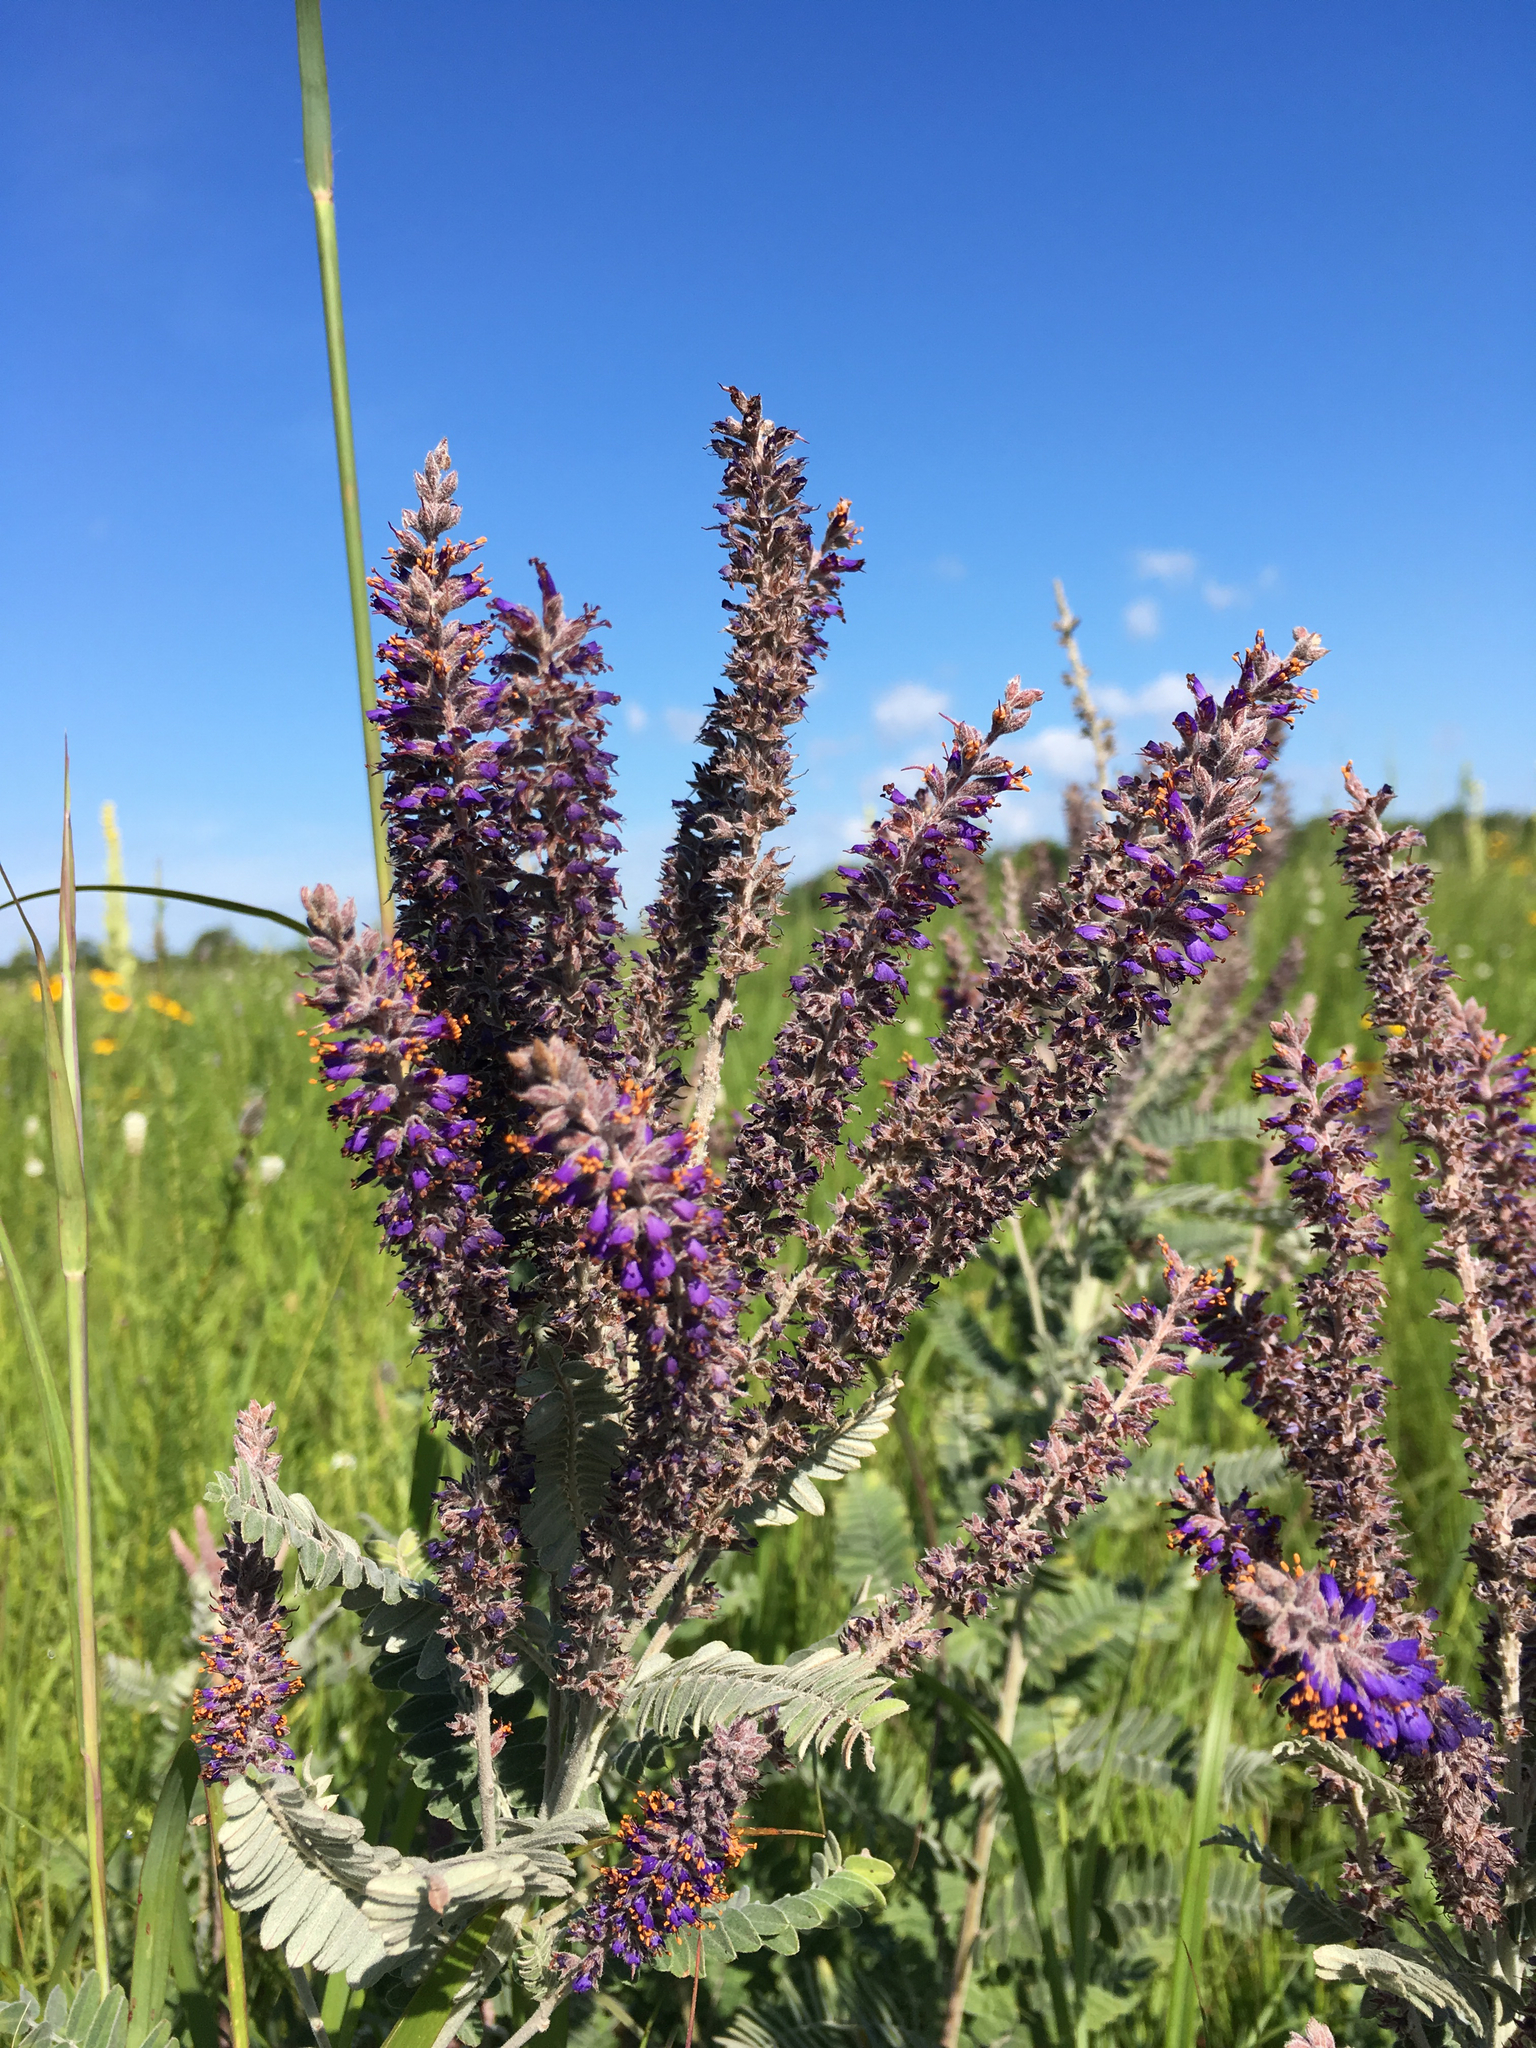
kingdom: Plantae
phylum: Tracheophyta
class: Magnoliopsida
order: Fabales
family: Fabaceae
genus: Amorpha
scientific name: Amorpha canescens
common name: Leadplant
